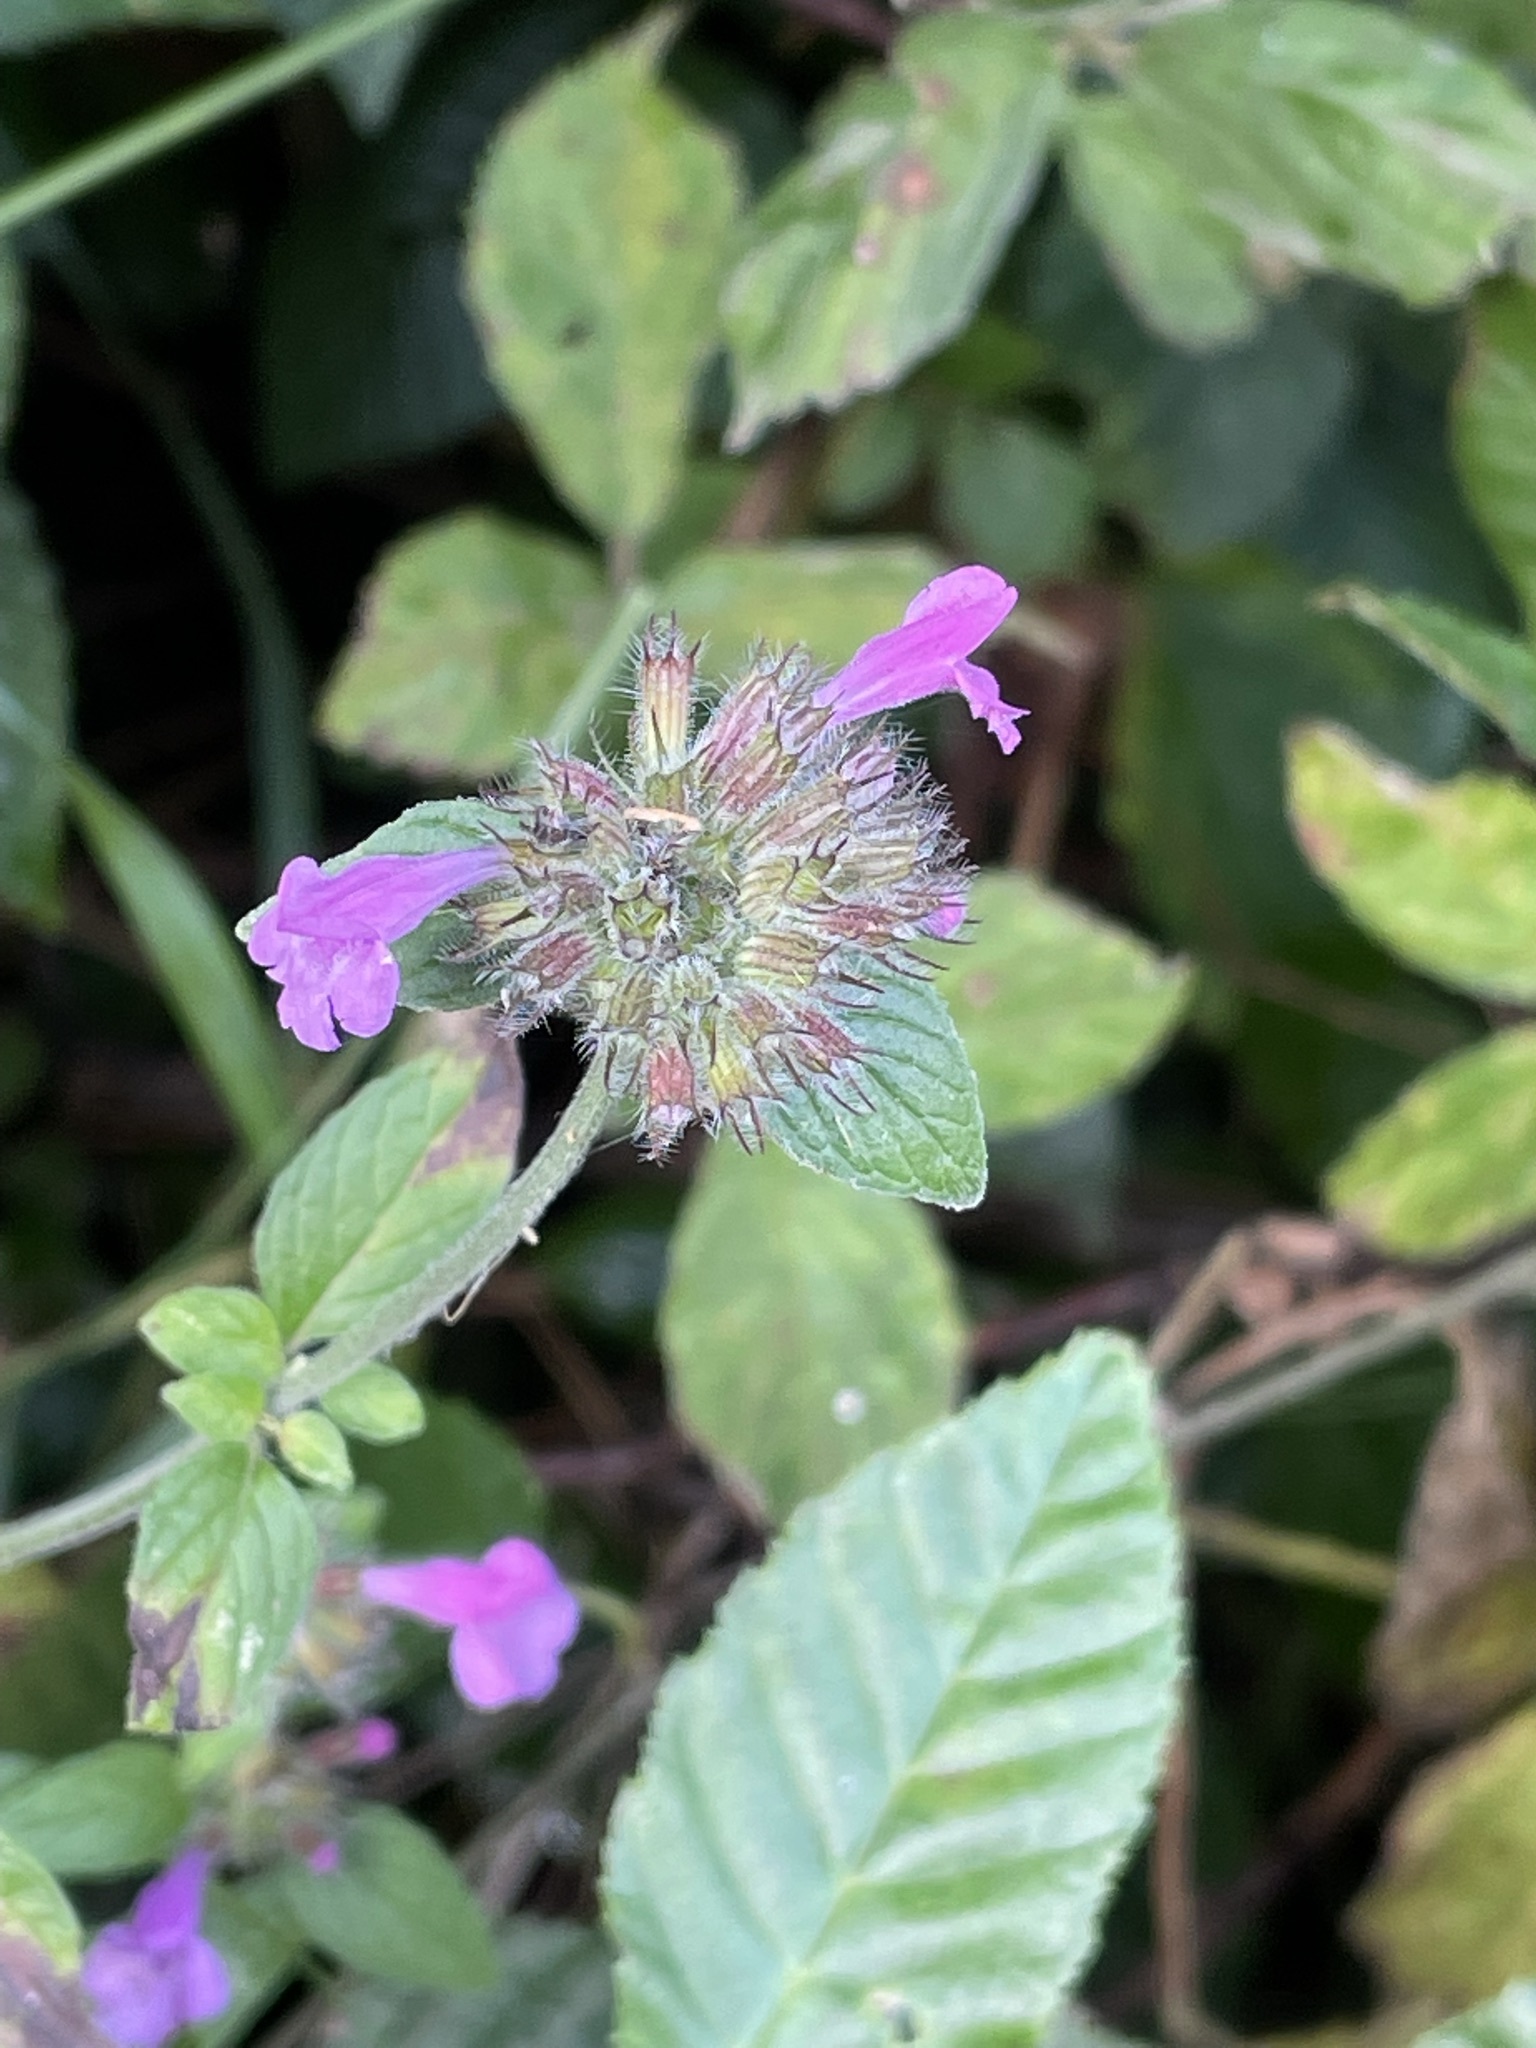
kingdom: Plantae
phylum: Tracheophyta
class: Magnoliopsida
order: Lamiales
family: Lamiaceae
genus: Clinopodium
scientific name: Clinopodium vulgare
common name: Wild basil
